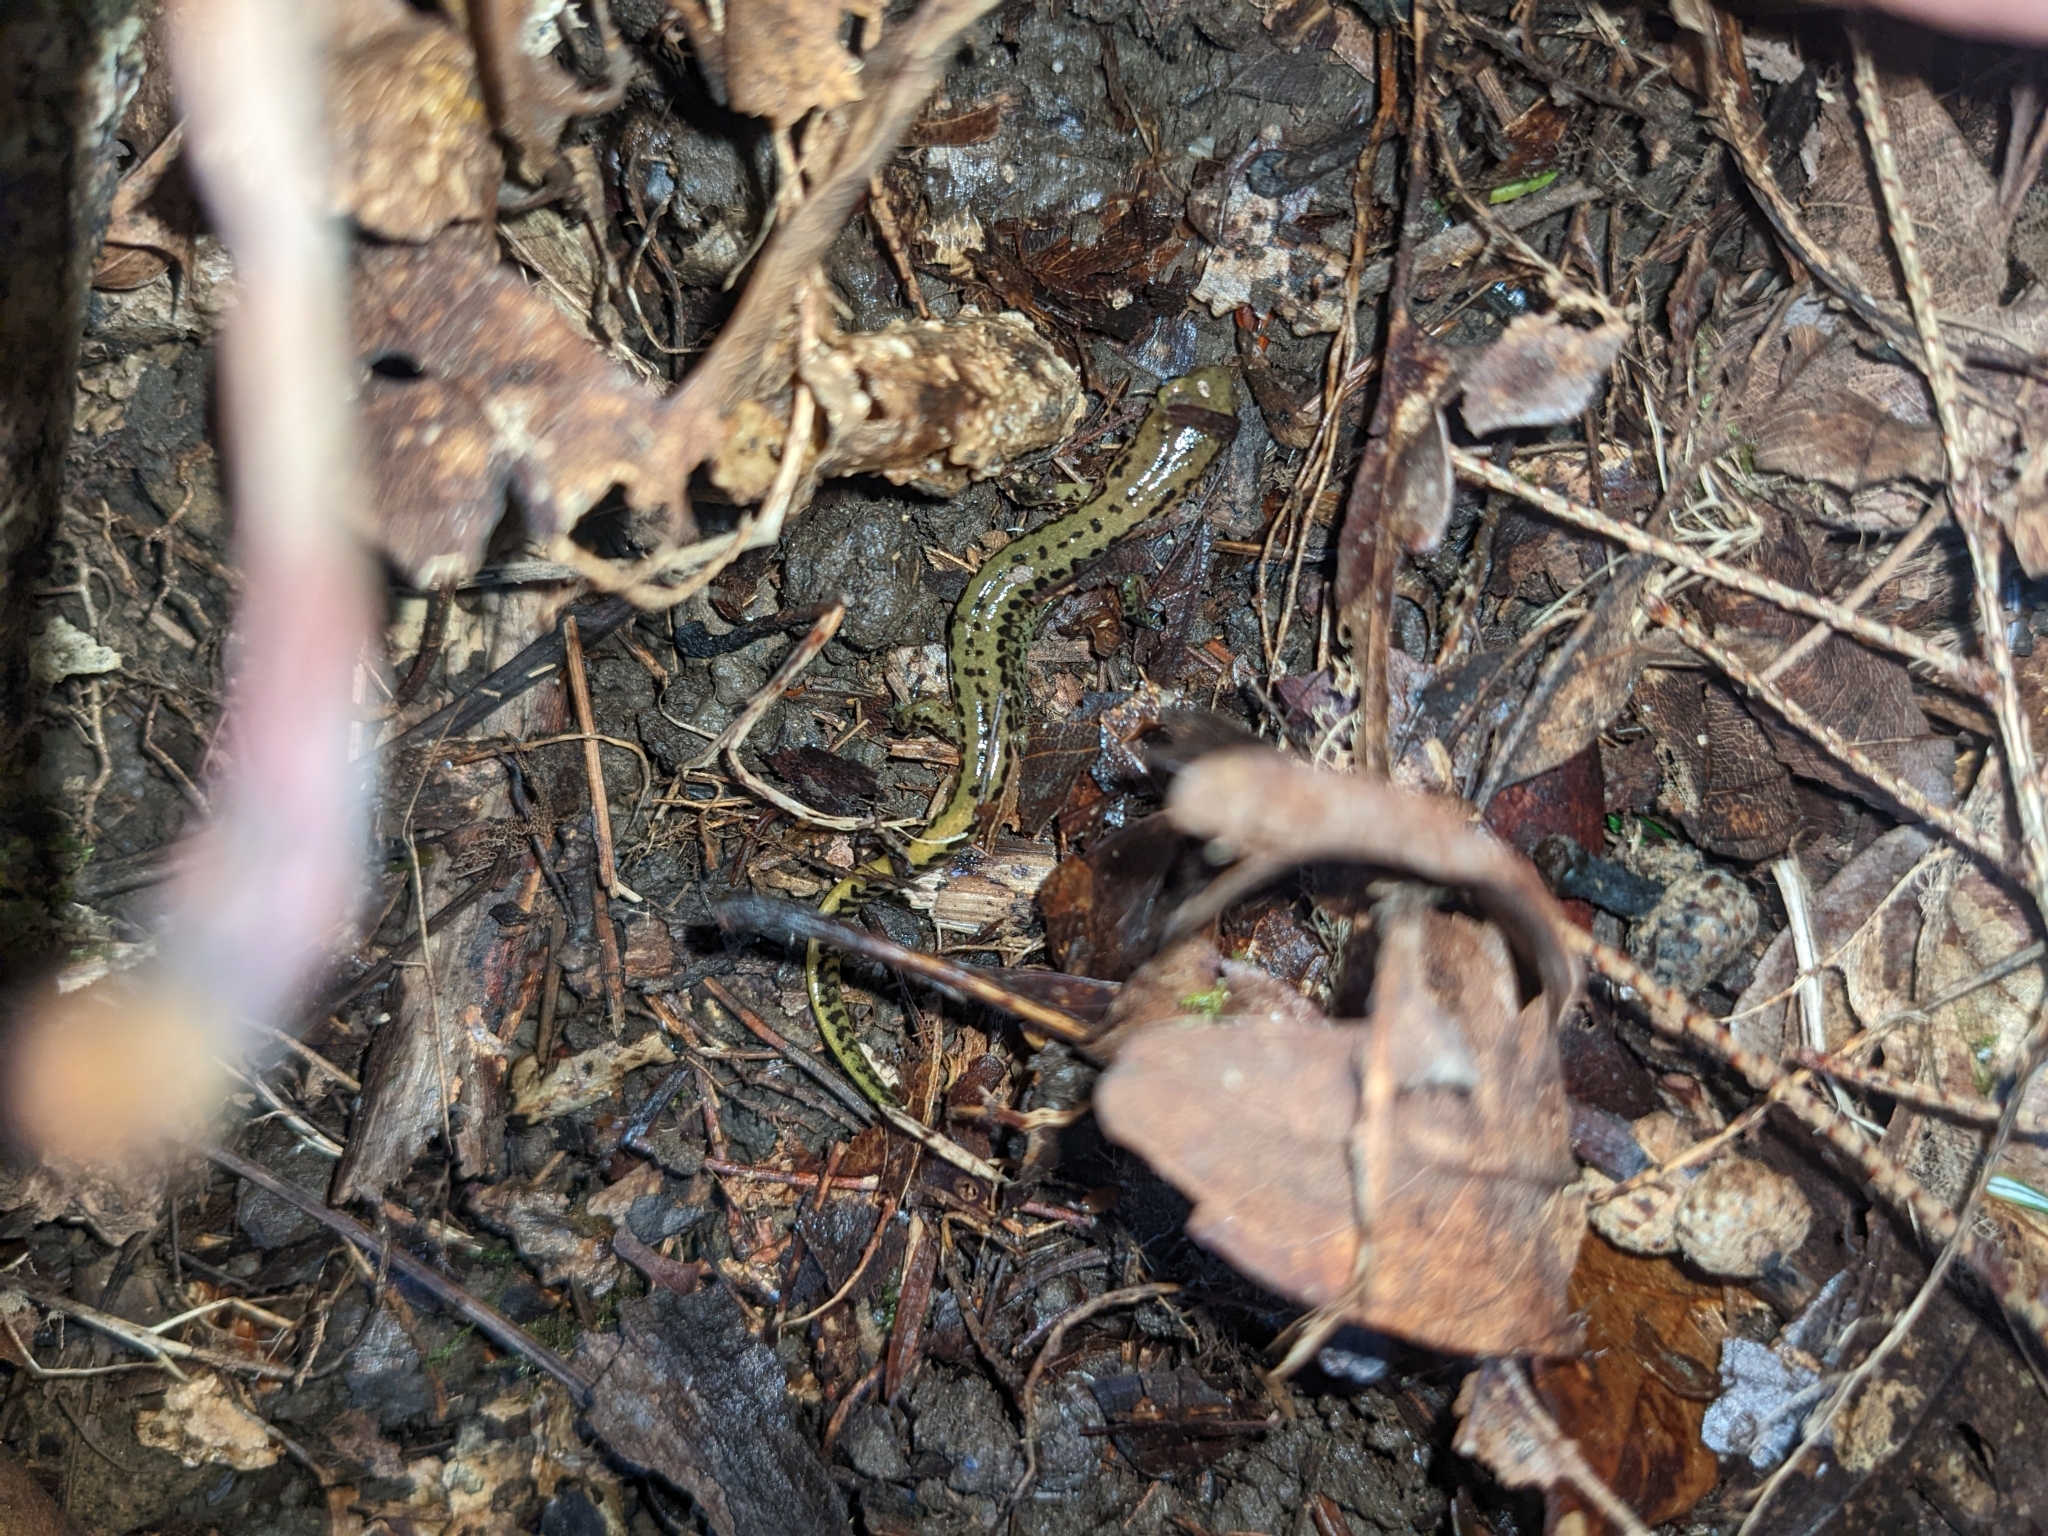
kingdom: Animalia
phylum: Chordata
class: Amphibia
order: Caudata
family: Plethodontidae
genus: Eurycea
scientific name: Eurycea longicauda
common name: Long-tailed salamander
